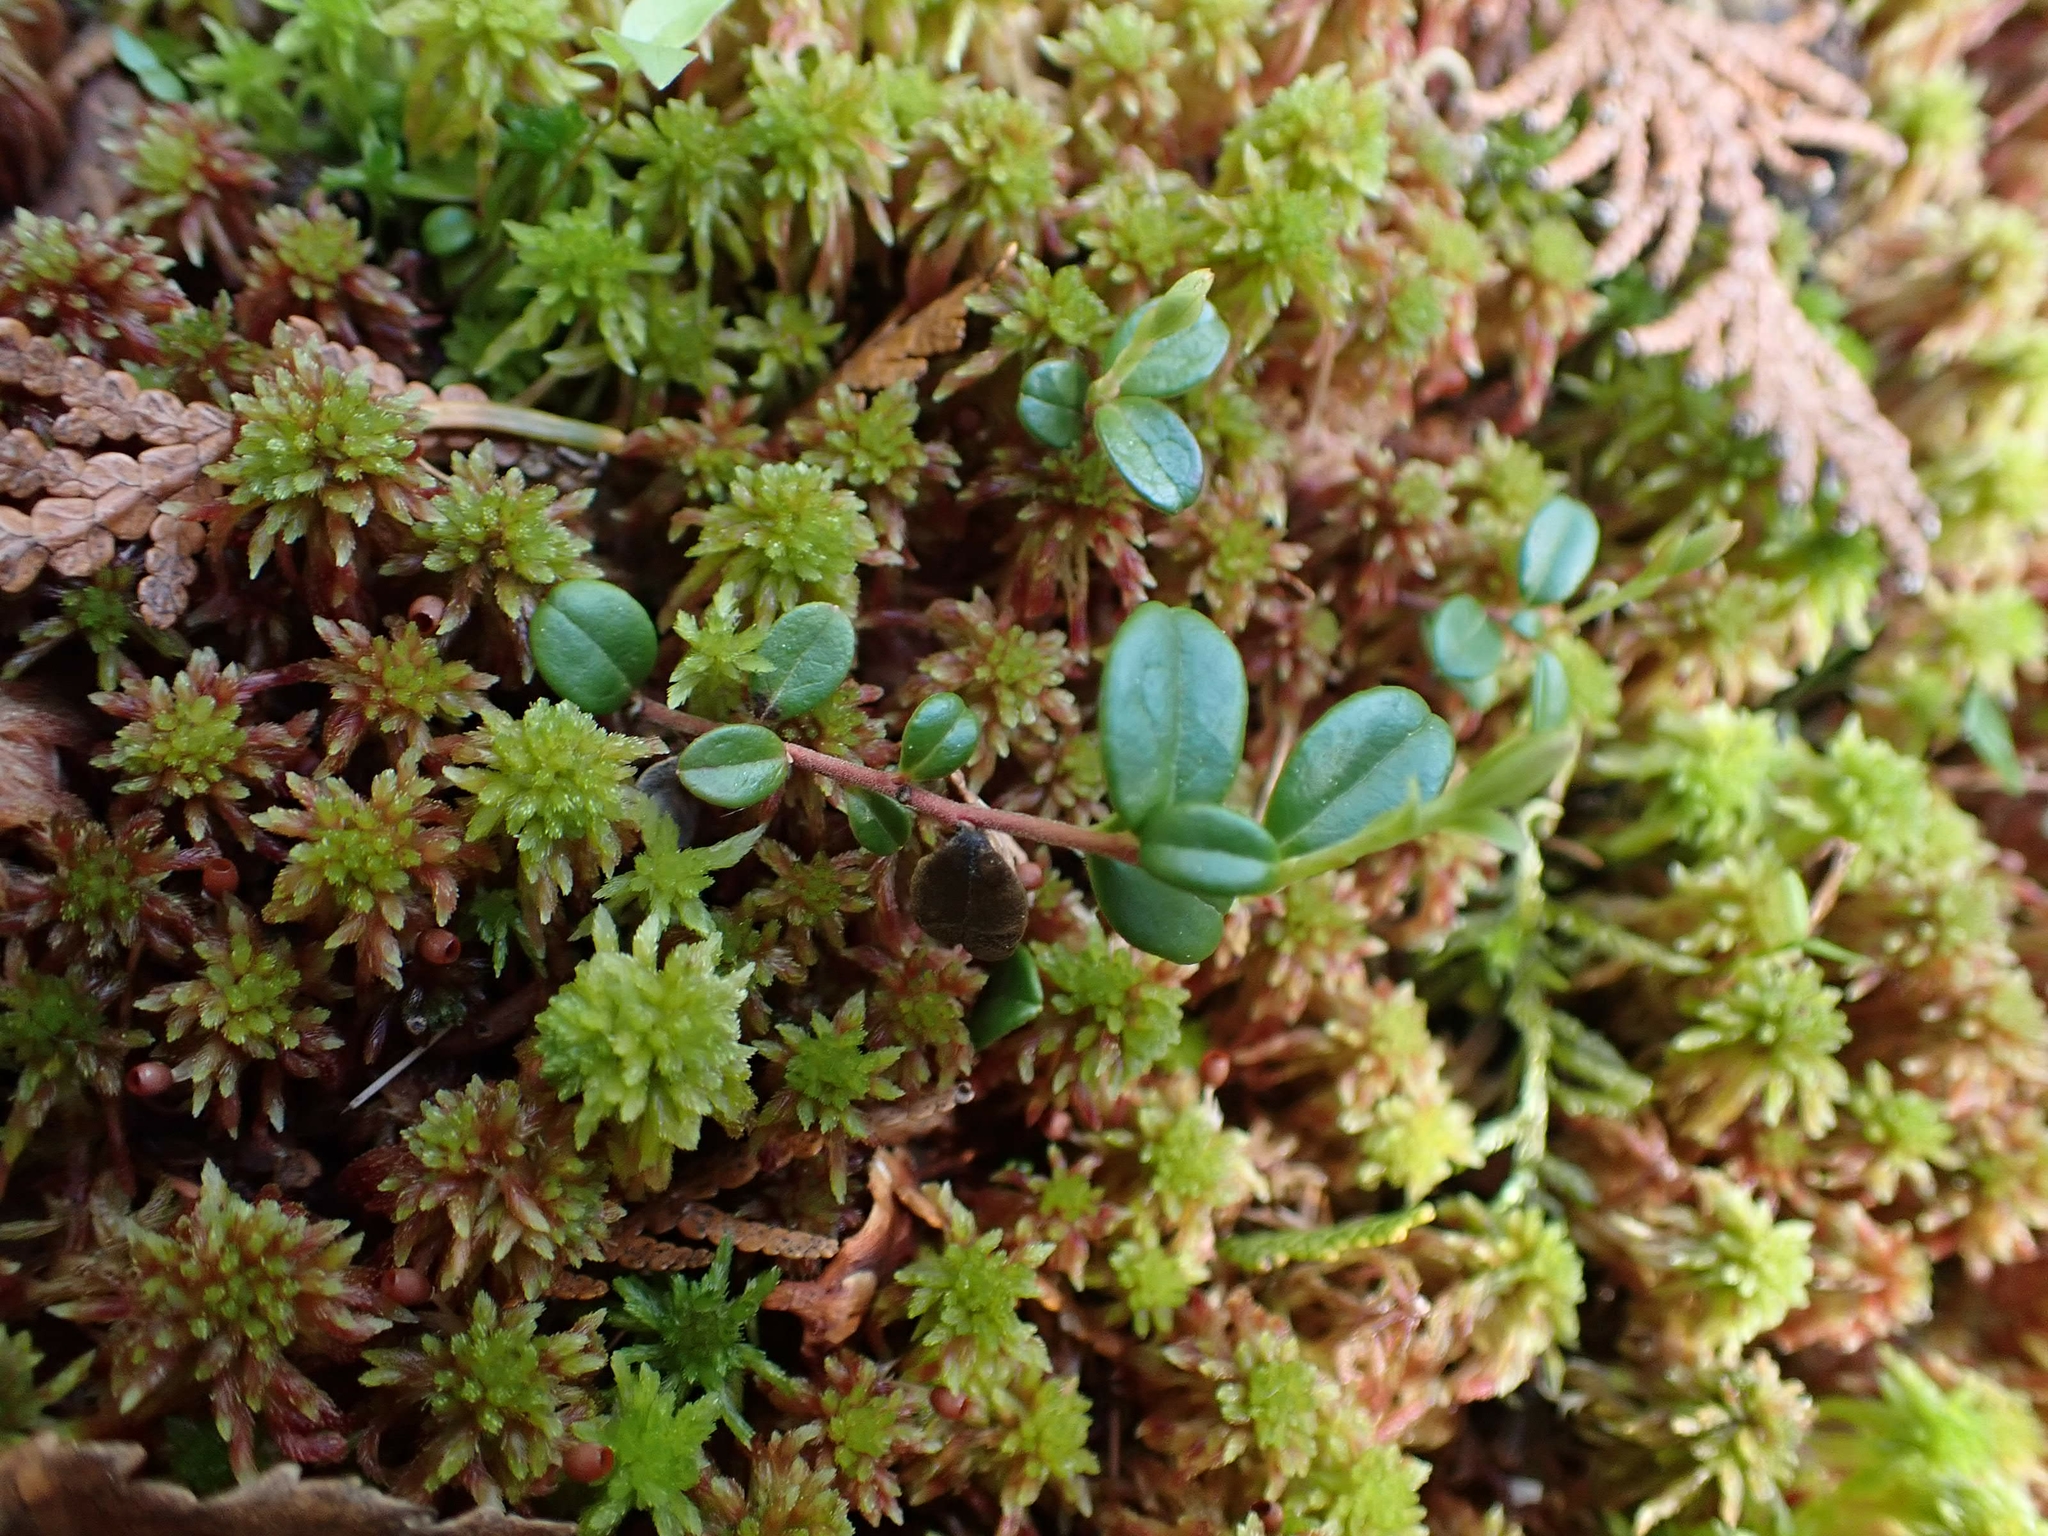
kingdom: Plantae
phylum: Tracheophyta
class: Magnoliopsida
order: Ericales
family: Ericaceae
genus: Gaultheria
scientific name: Gaultheria hispidula
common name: Cancer wintergreen
